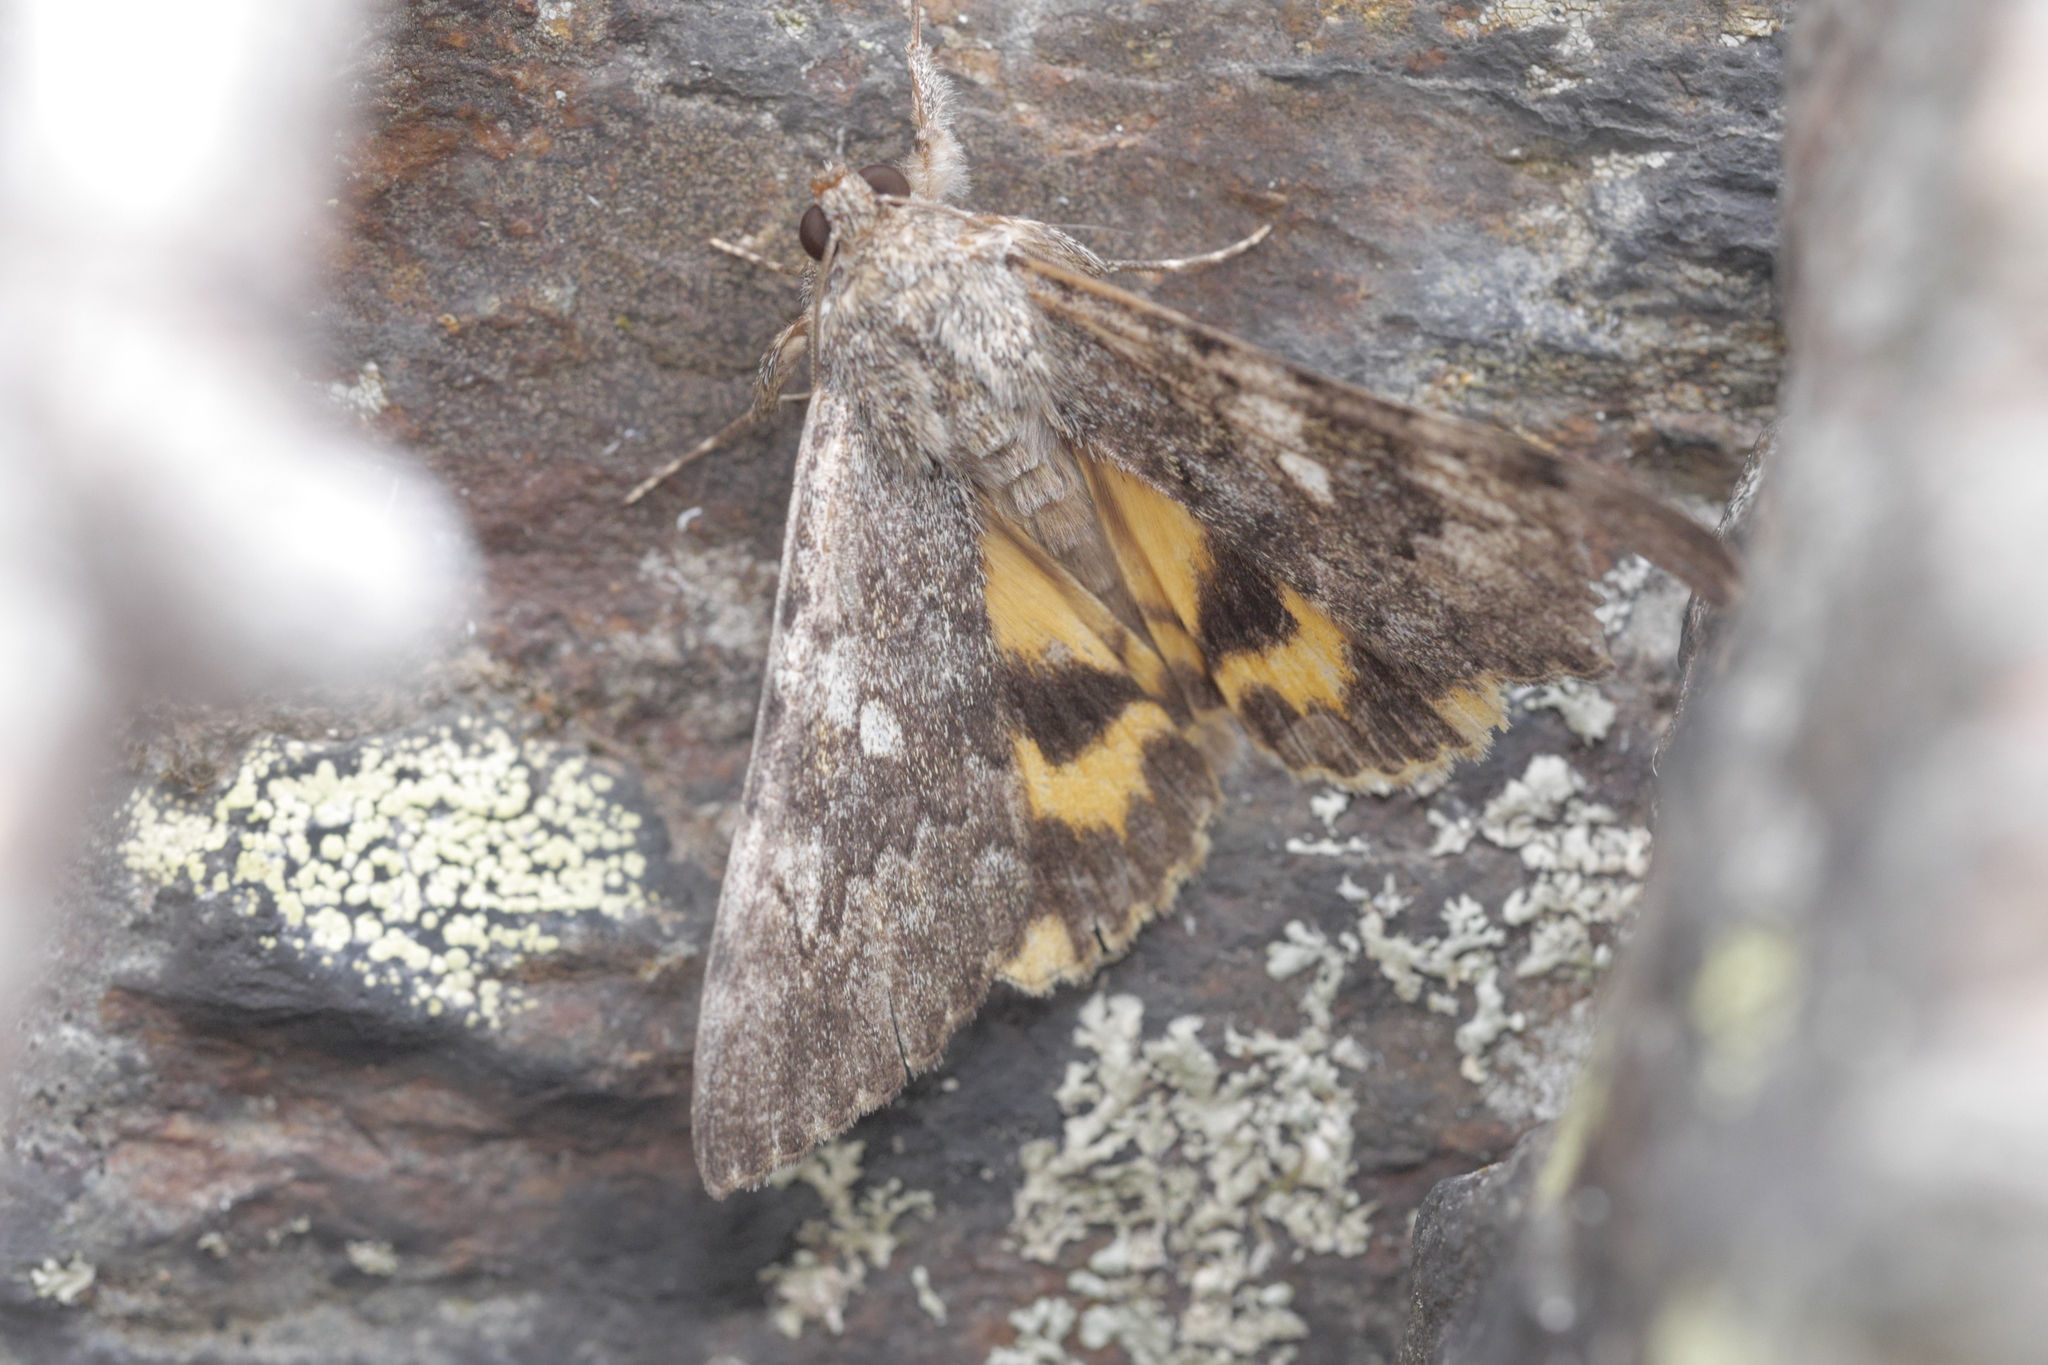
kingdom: Animalia
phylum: Arthropoda
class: Insecta
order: Lepidoptera
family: Erebidae
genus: Catocala
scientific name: Catocala eutychea
